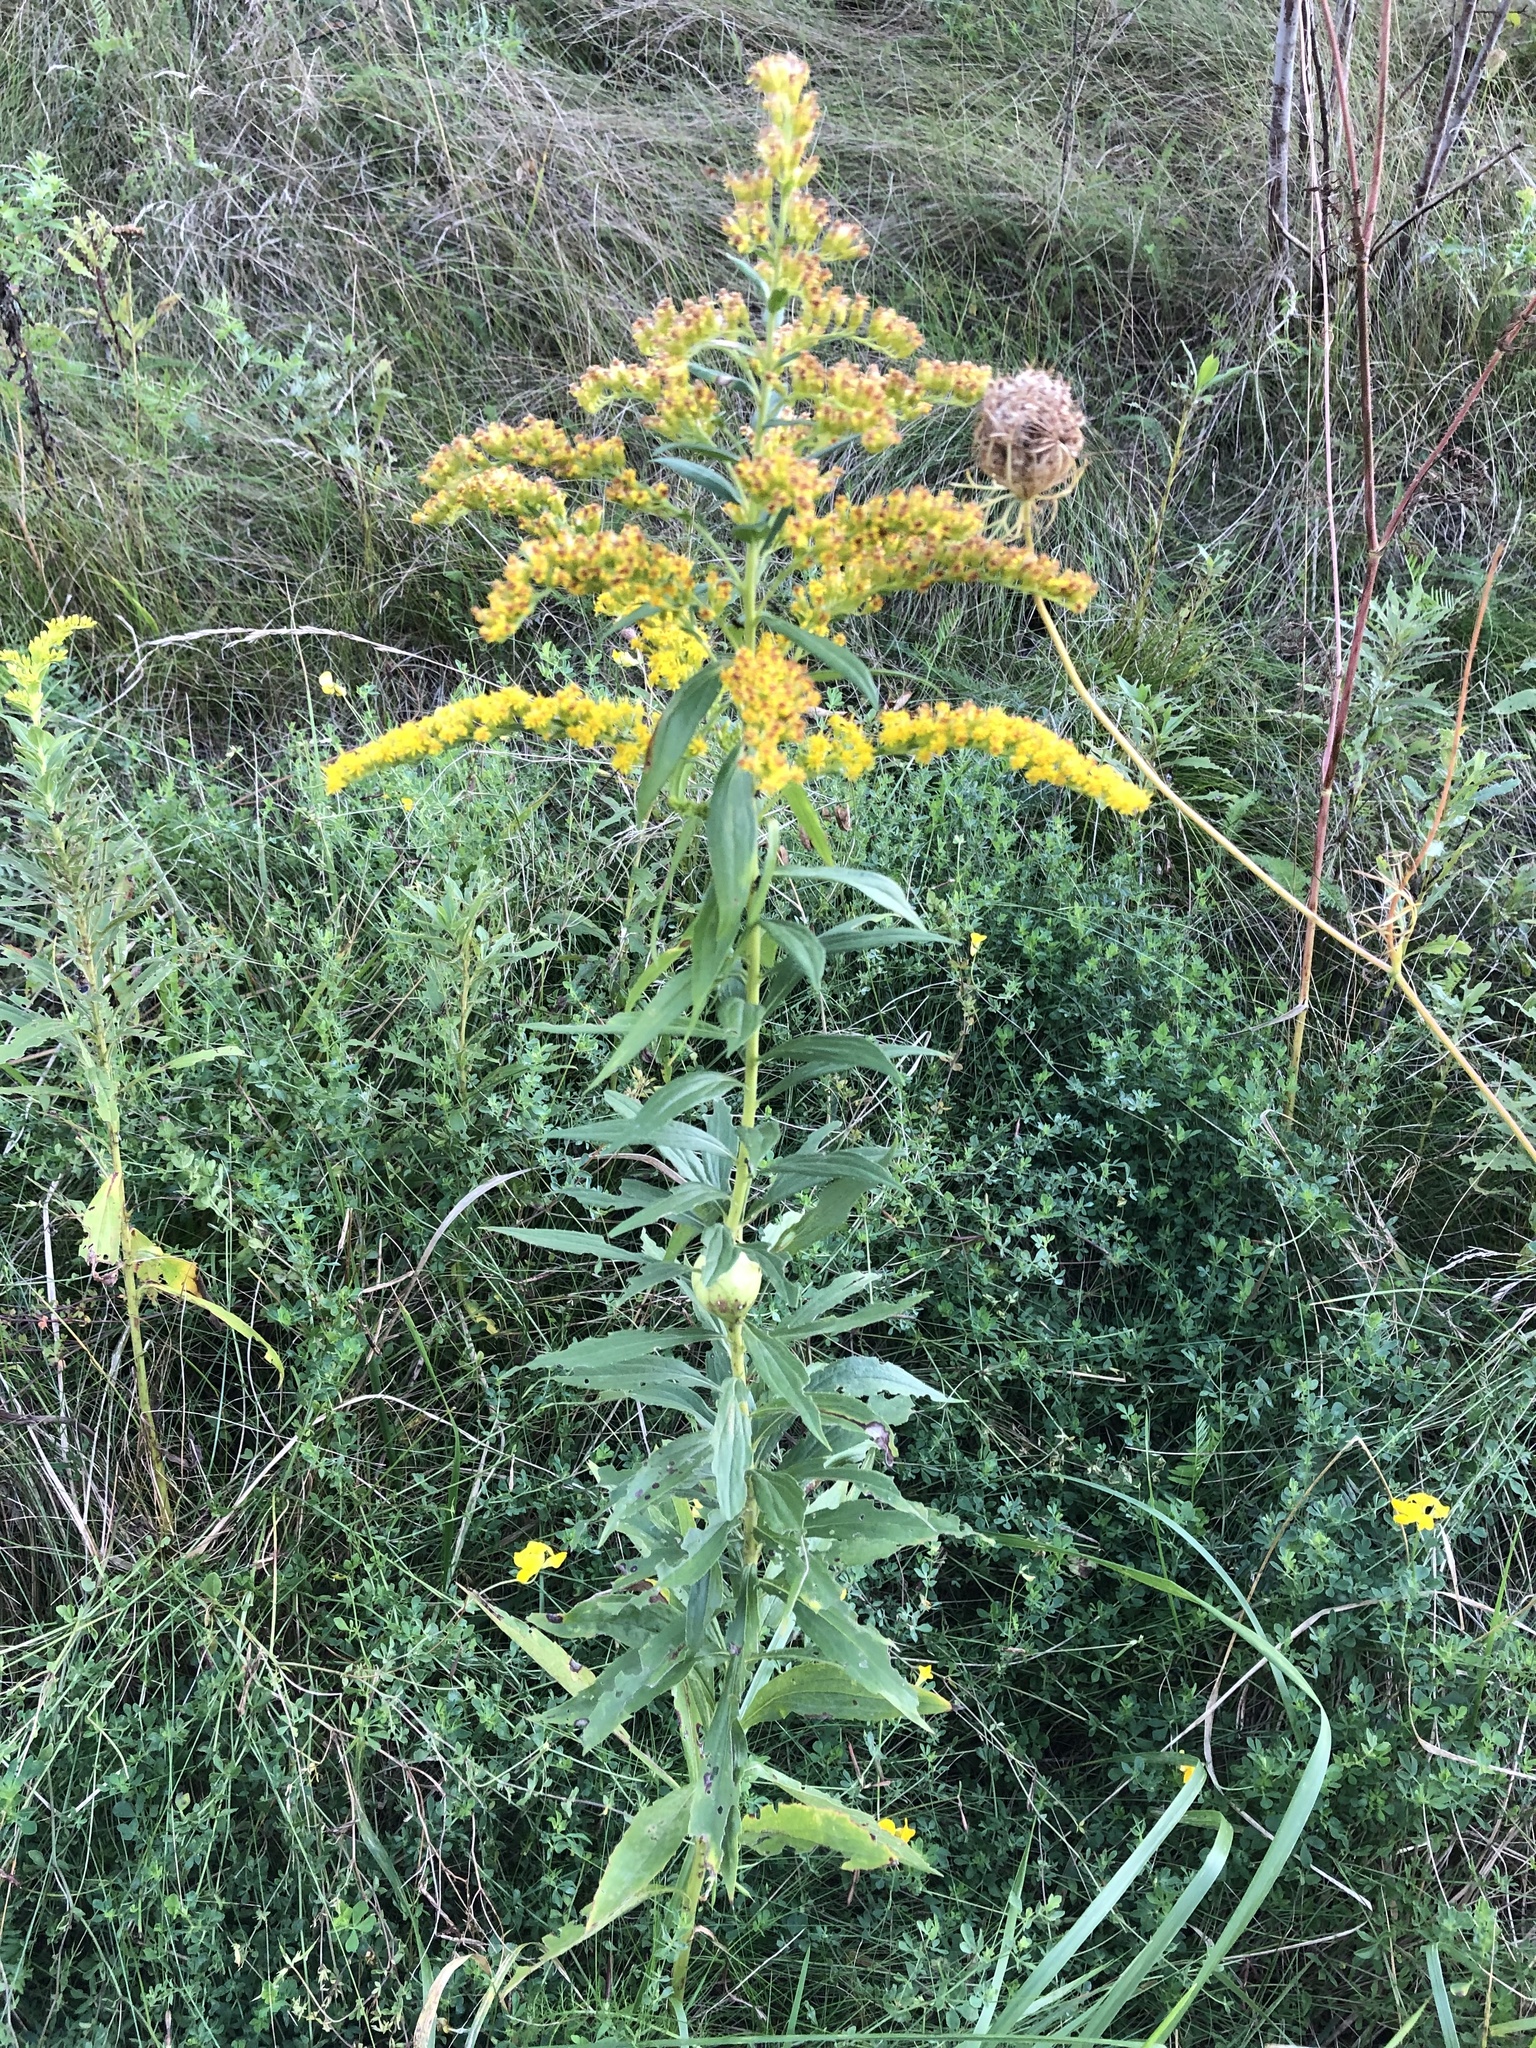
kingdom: Plantae
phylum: Tracheophyta
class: Magnoliopsida
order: Asterales
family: Asteraceae
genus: Solidago
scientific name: Solidago altissima
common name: Late goldenrod
